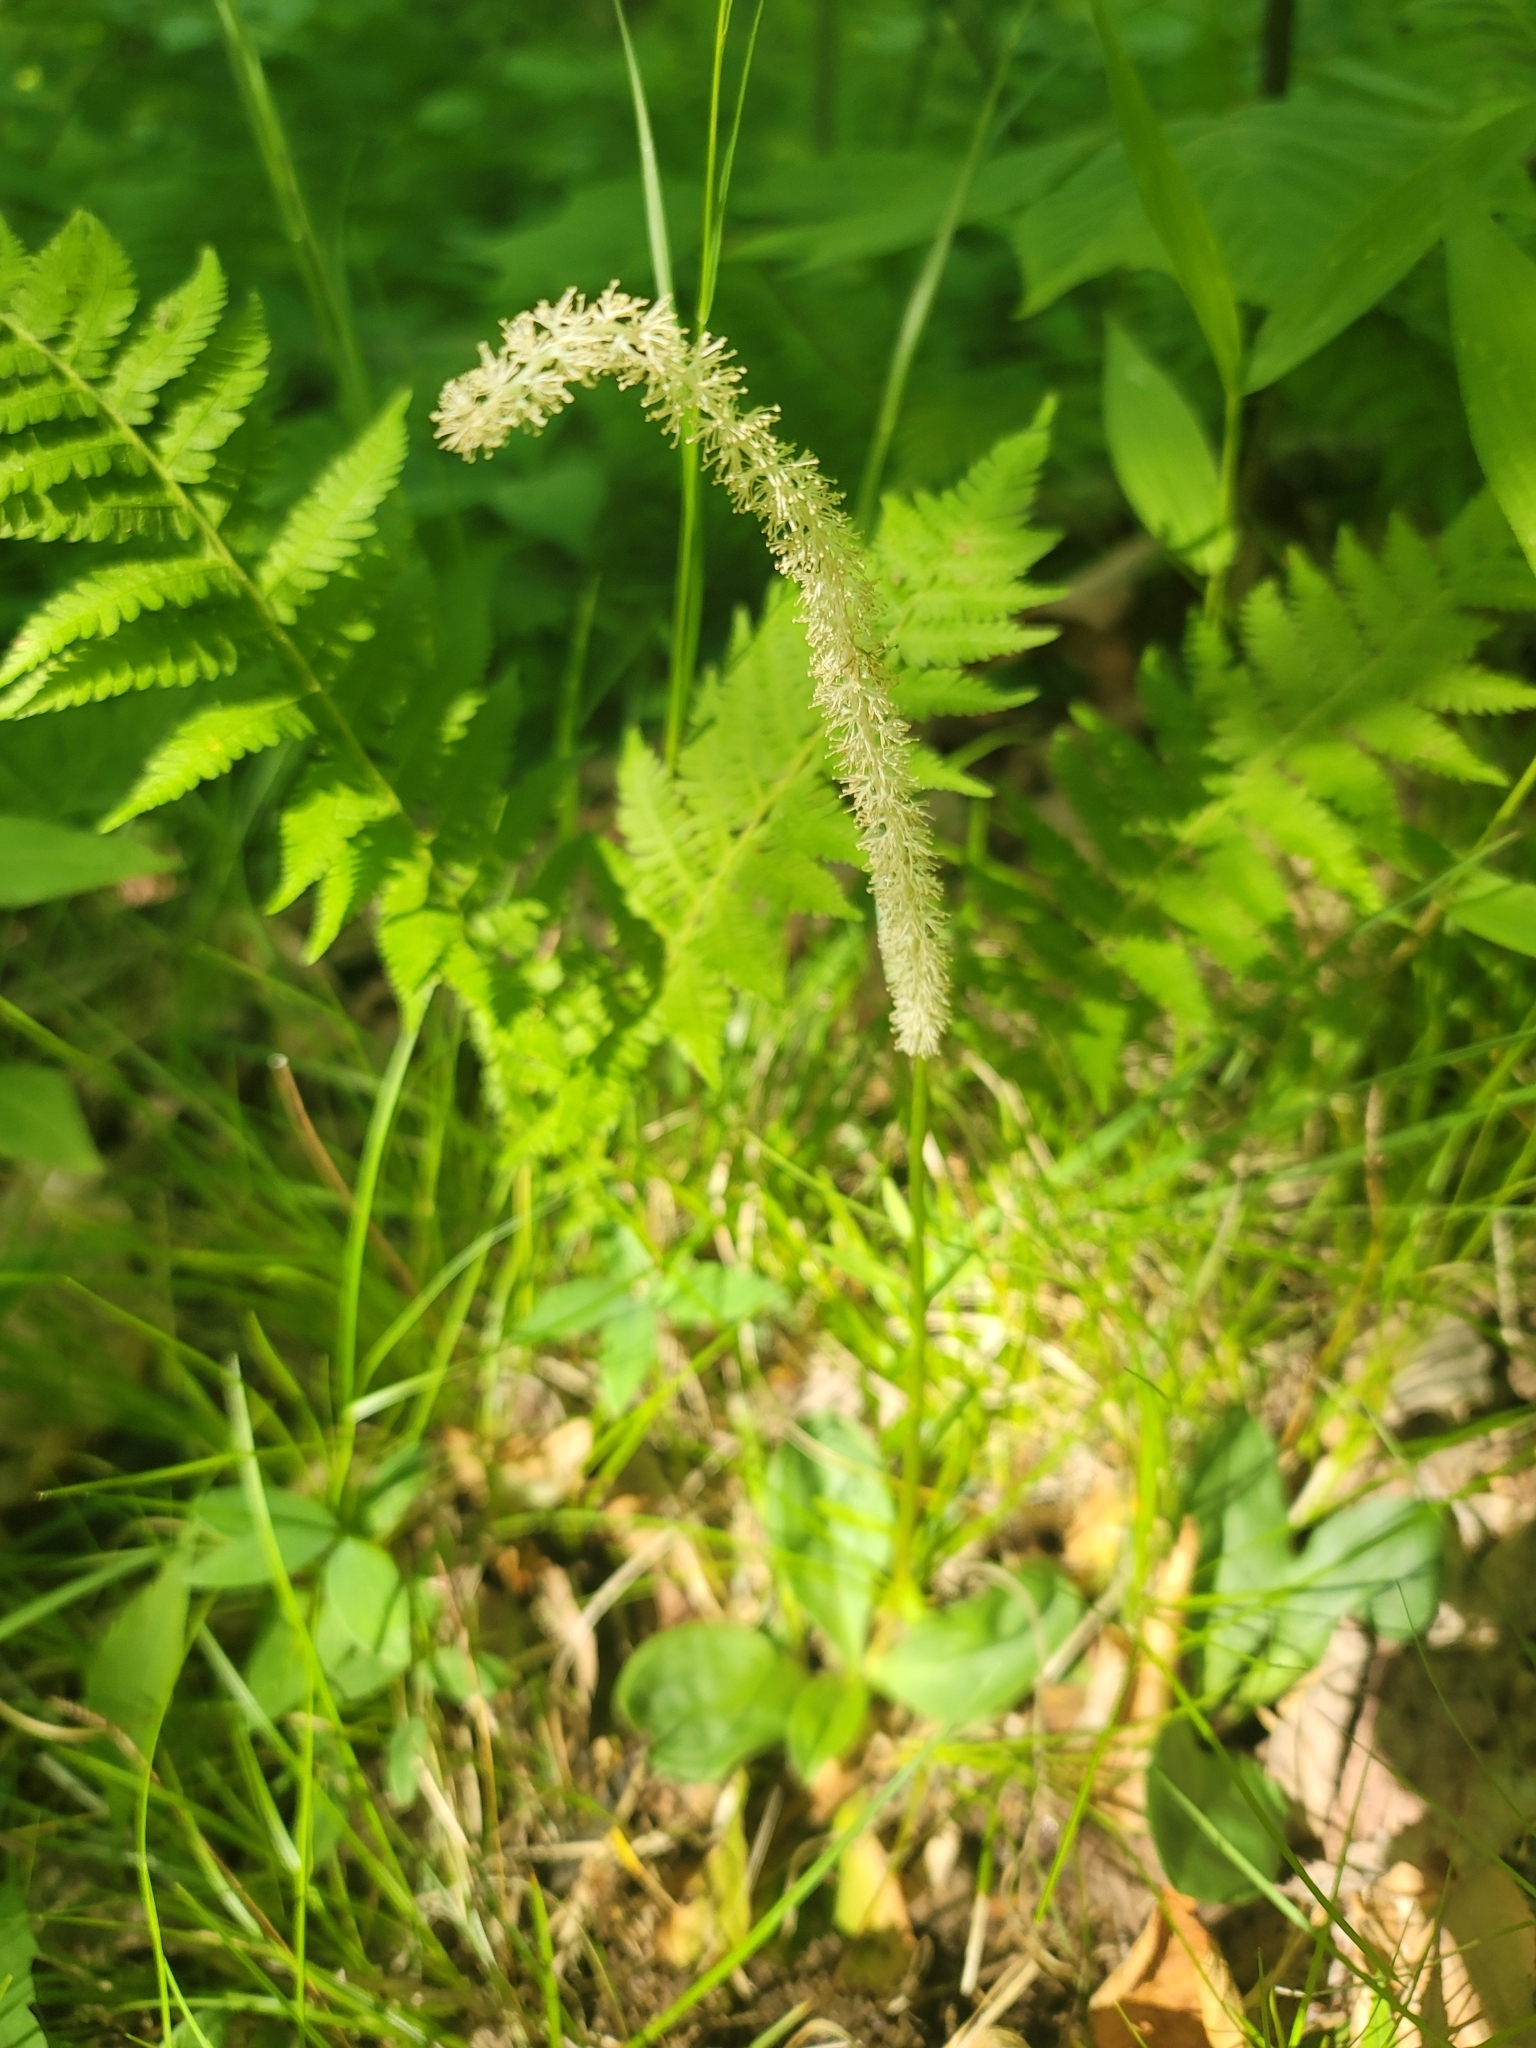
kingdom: Plantae
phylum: Tracheophyta
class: Liliopsida
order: Liliales
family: Melanthiaceae
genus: Chamaelirium
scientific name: Chamaelirium luteum
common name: Fairy-wand
